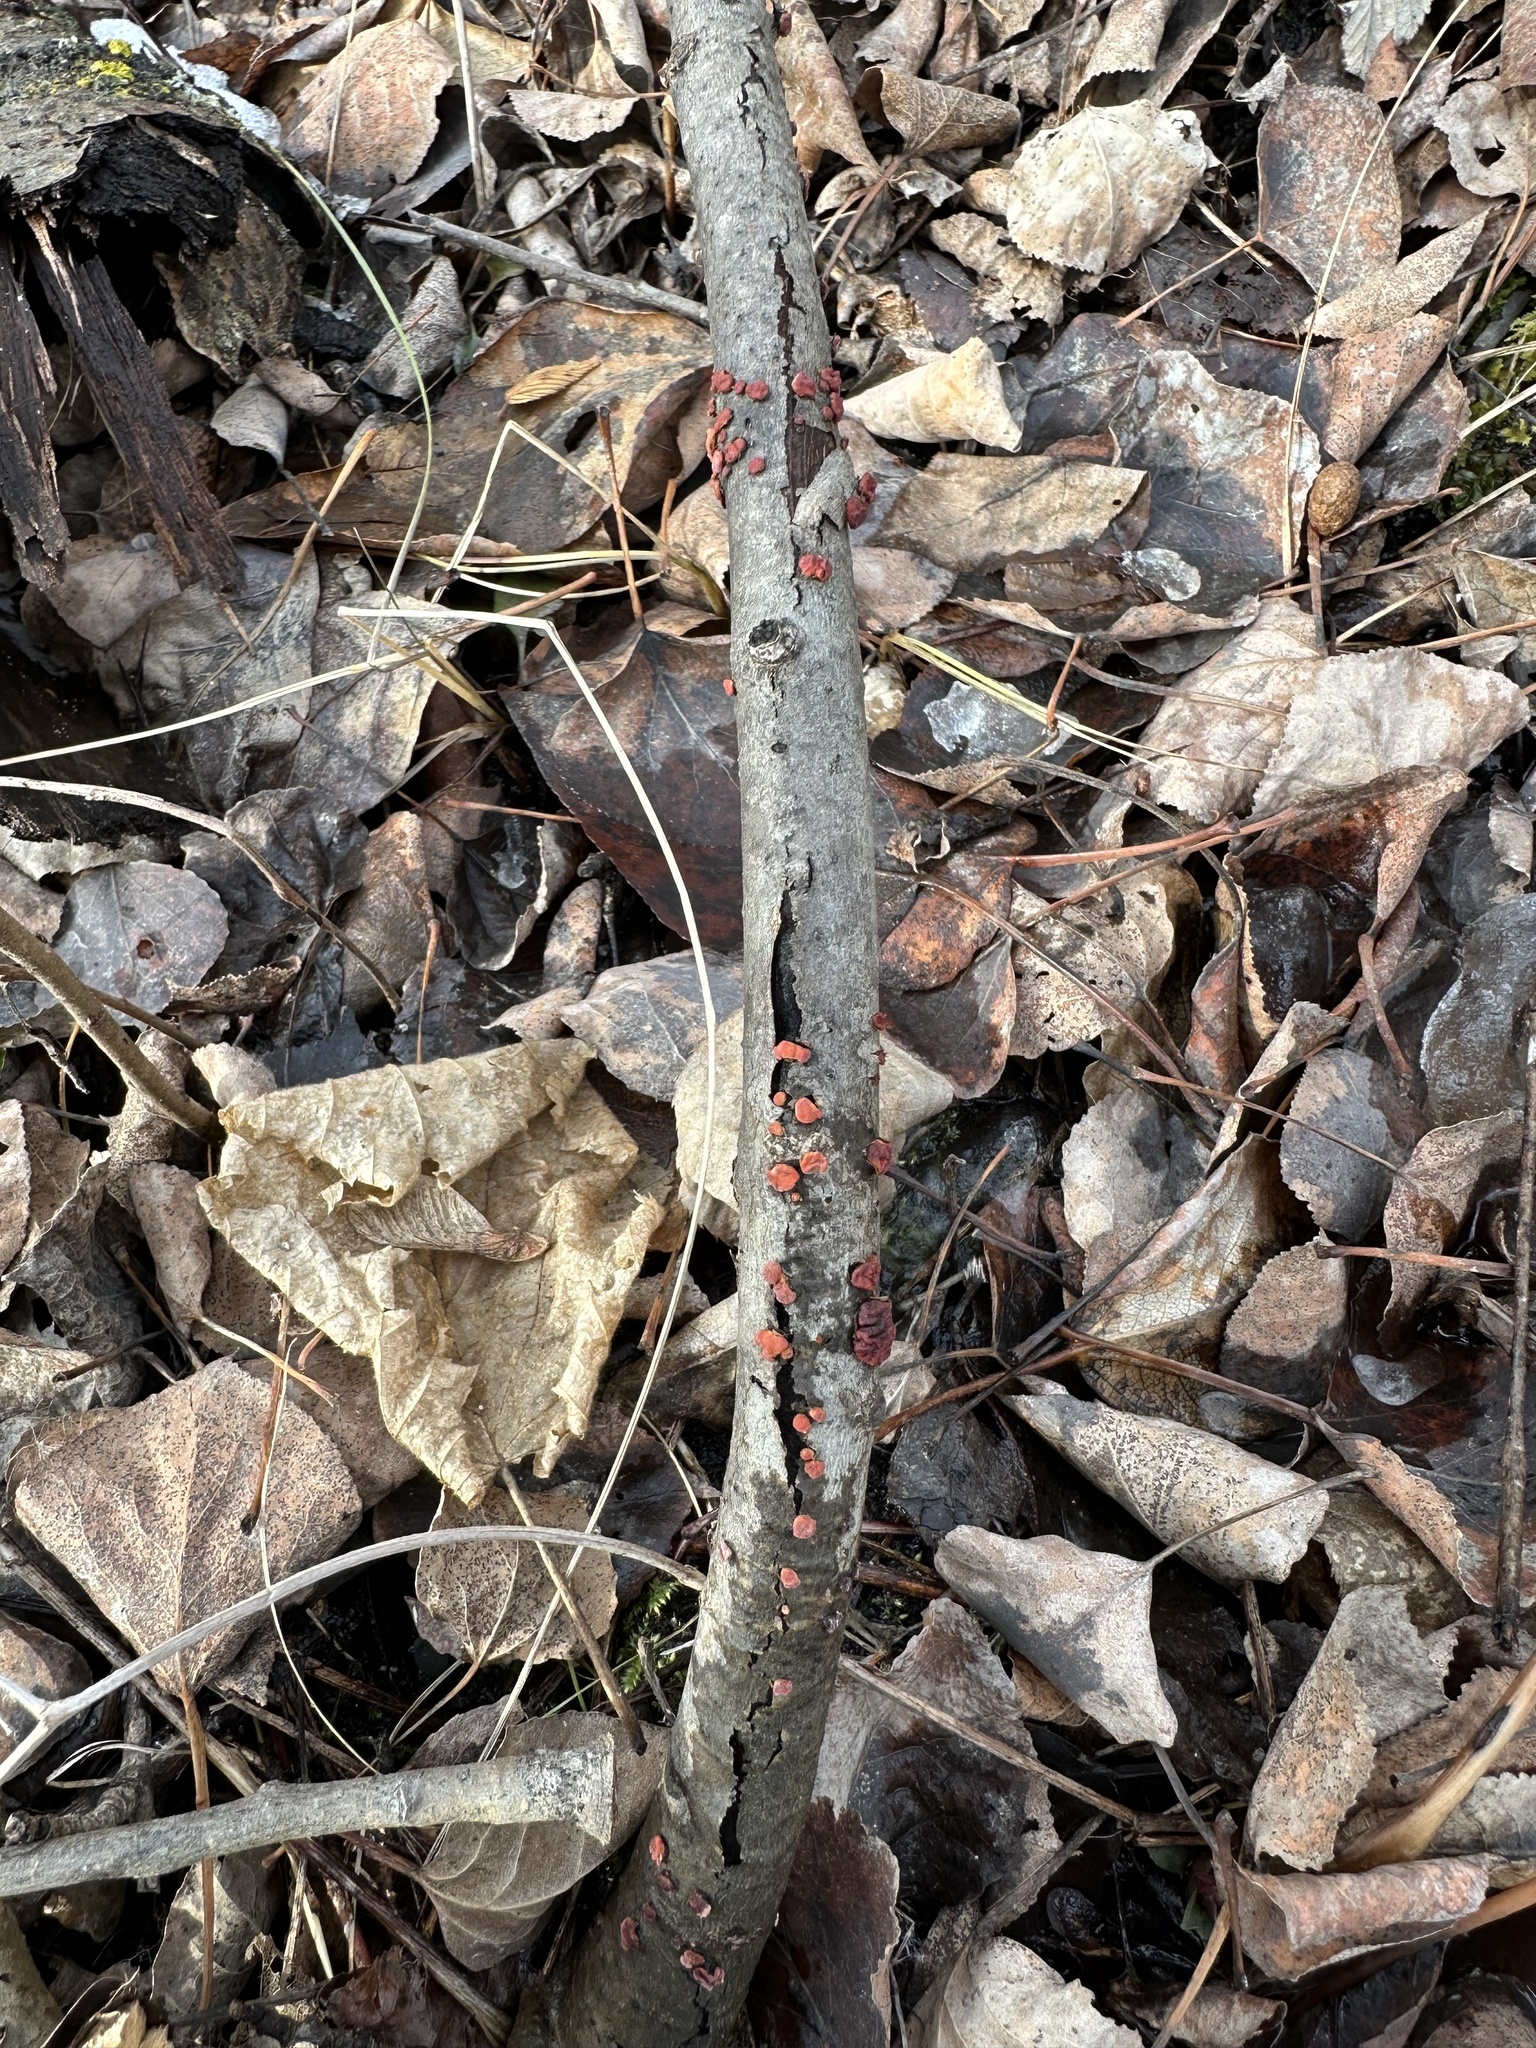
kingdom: Fungi
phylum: Basidiomycota
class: Agaricomycetes
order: Russulales
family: Peniophoraceae
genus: Peniophora
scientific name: Peniophora rufa
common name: Red tree brain fungus
